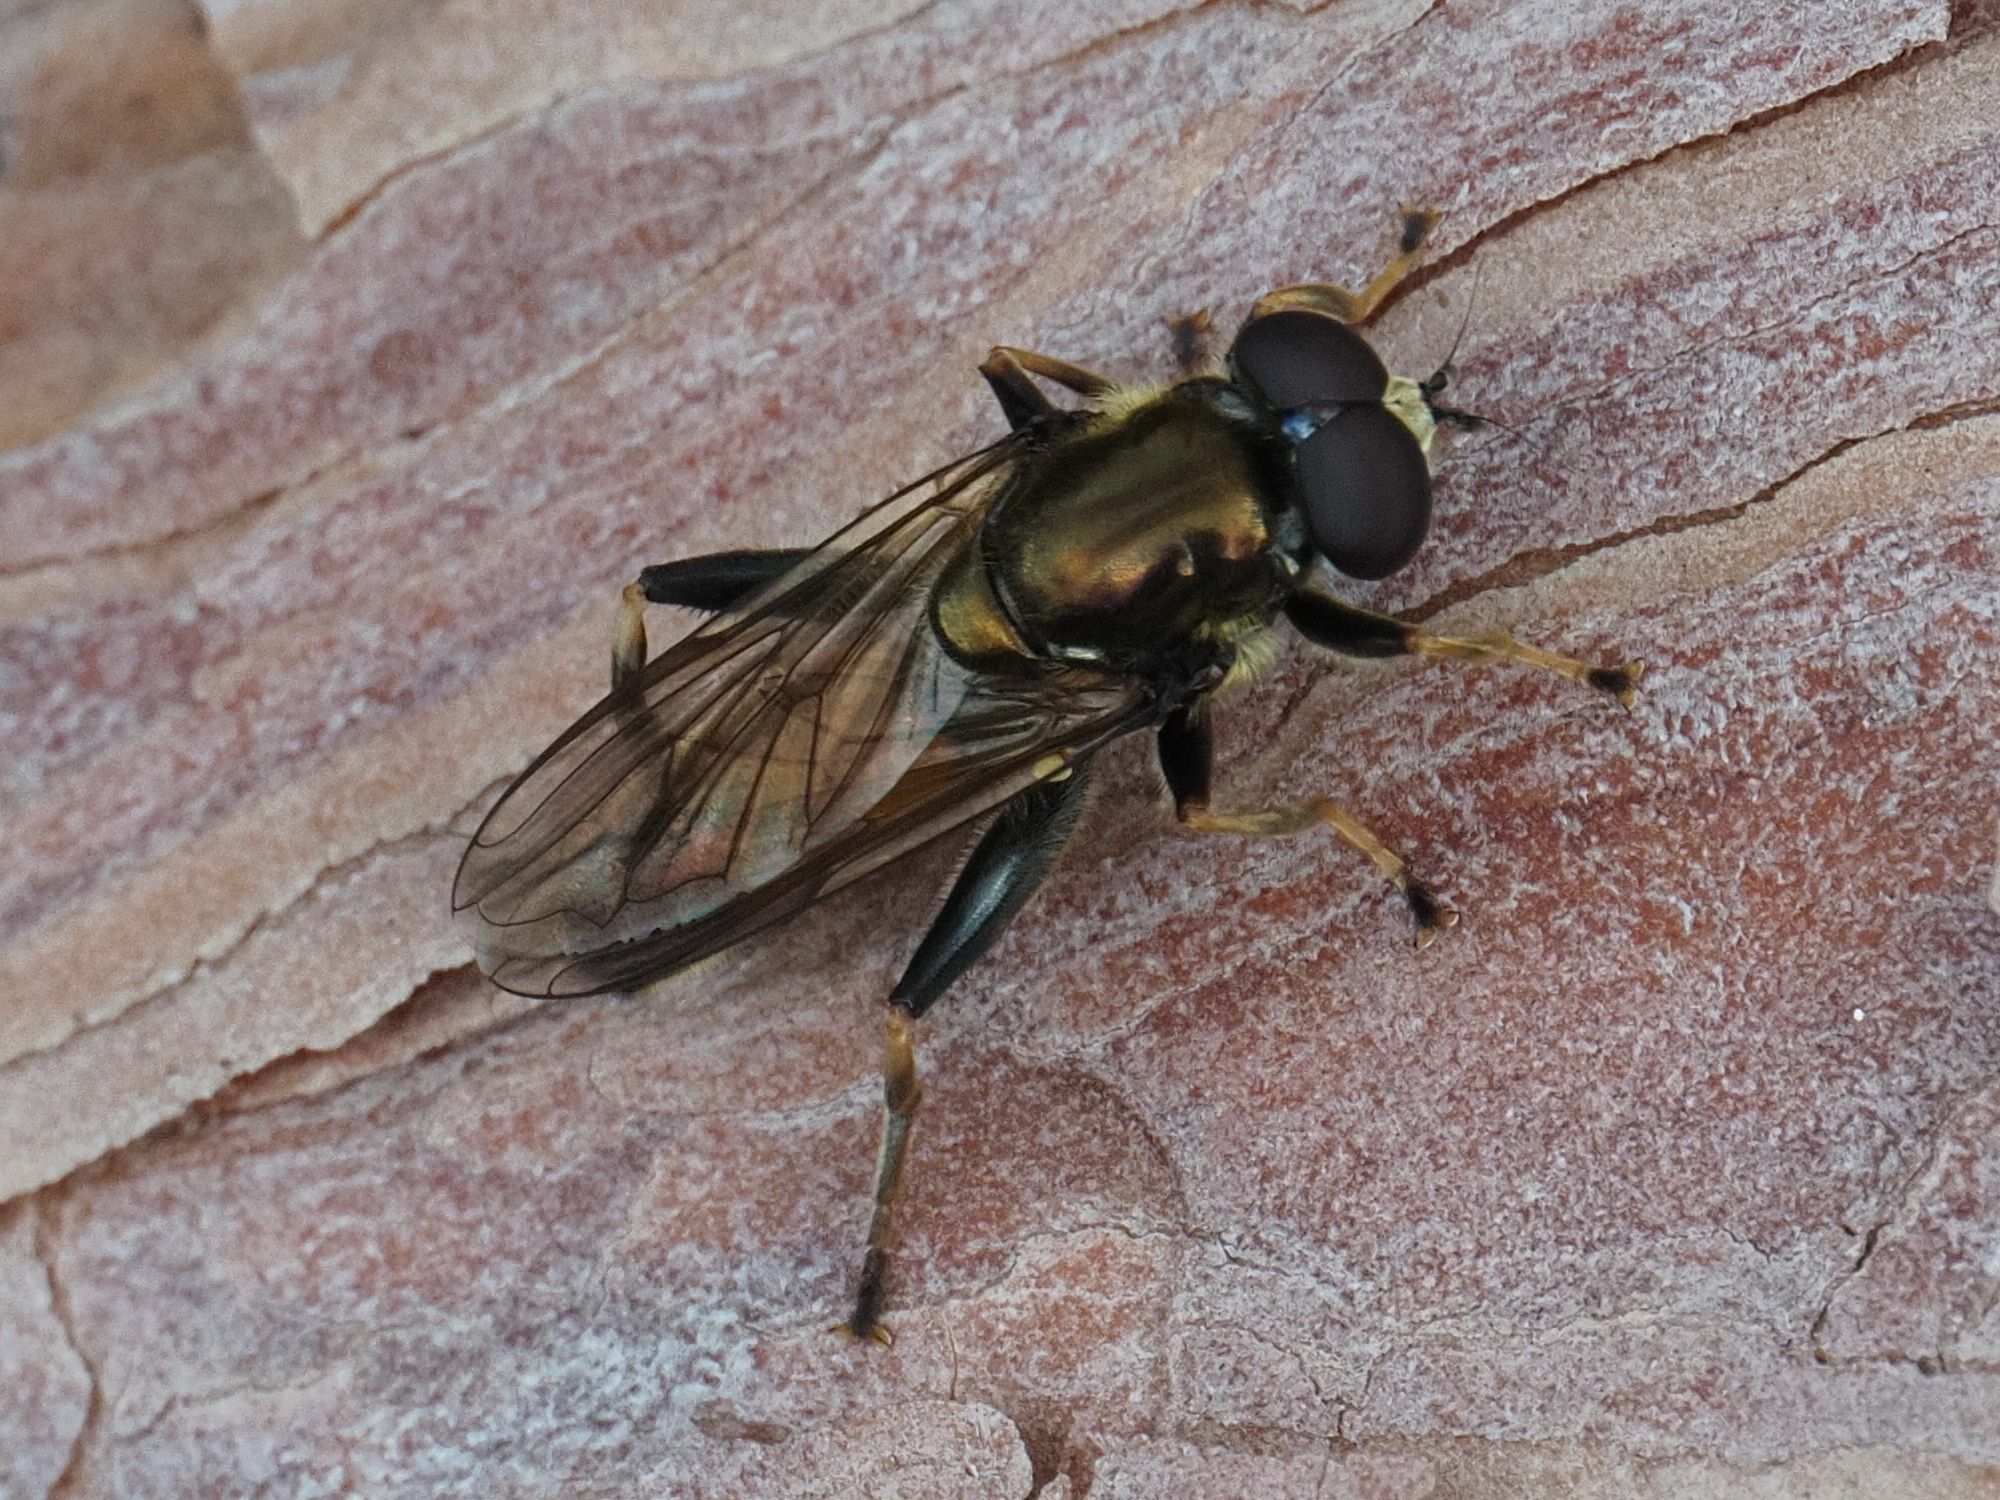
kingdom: Animalia
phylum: Arthropoda
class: Insecta
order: Diptera
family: Syrphidae
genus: Xylota
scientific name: Xylota segnis
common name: Brown-toed forest fly
